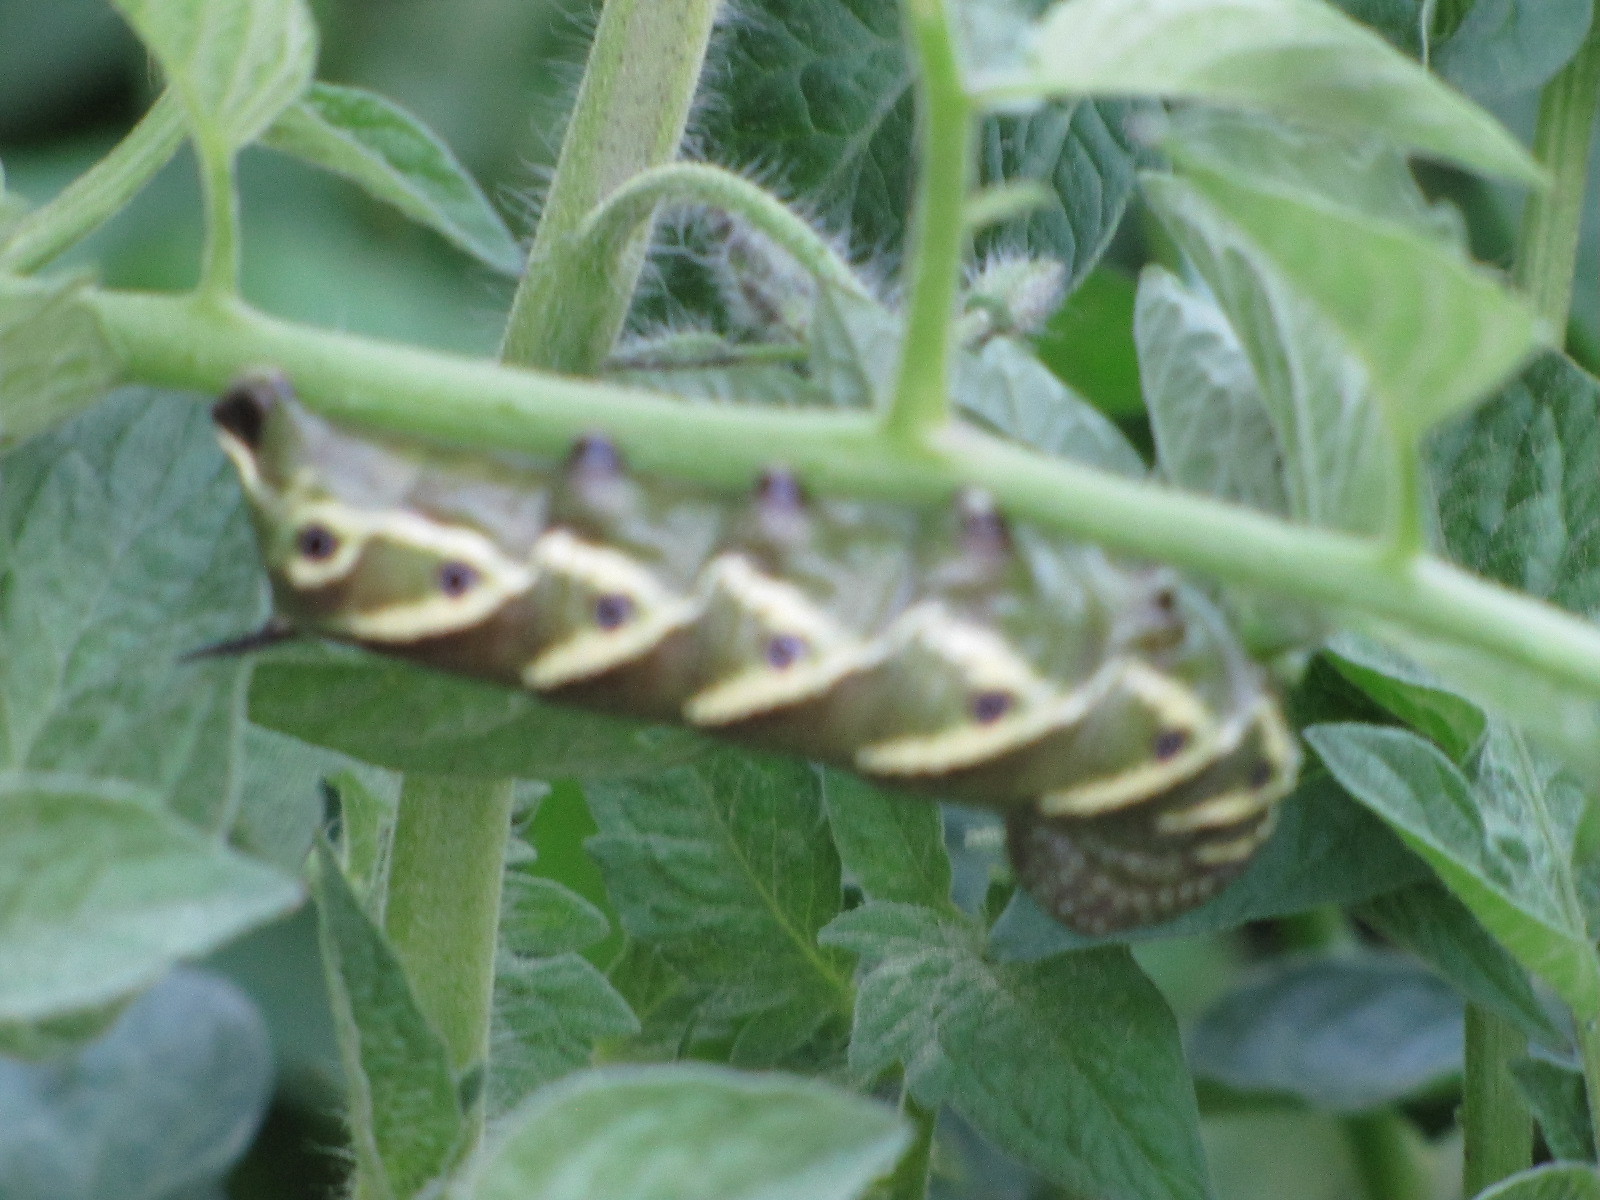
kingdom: Animalia
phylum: Arthropoda
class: Insecta
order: Lepidoptera
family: Sphingidae
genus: Manduca
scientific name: Manduca quinquemaculatus
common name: Five-spotted hawk-moth
